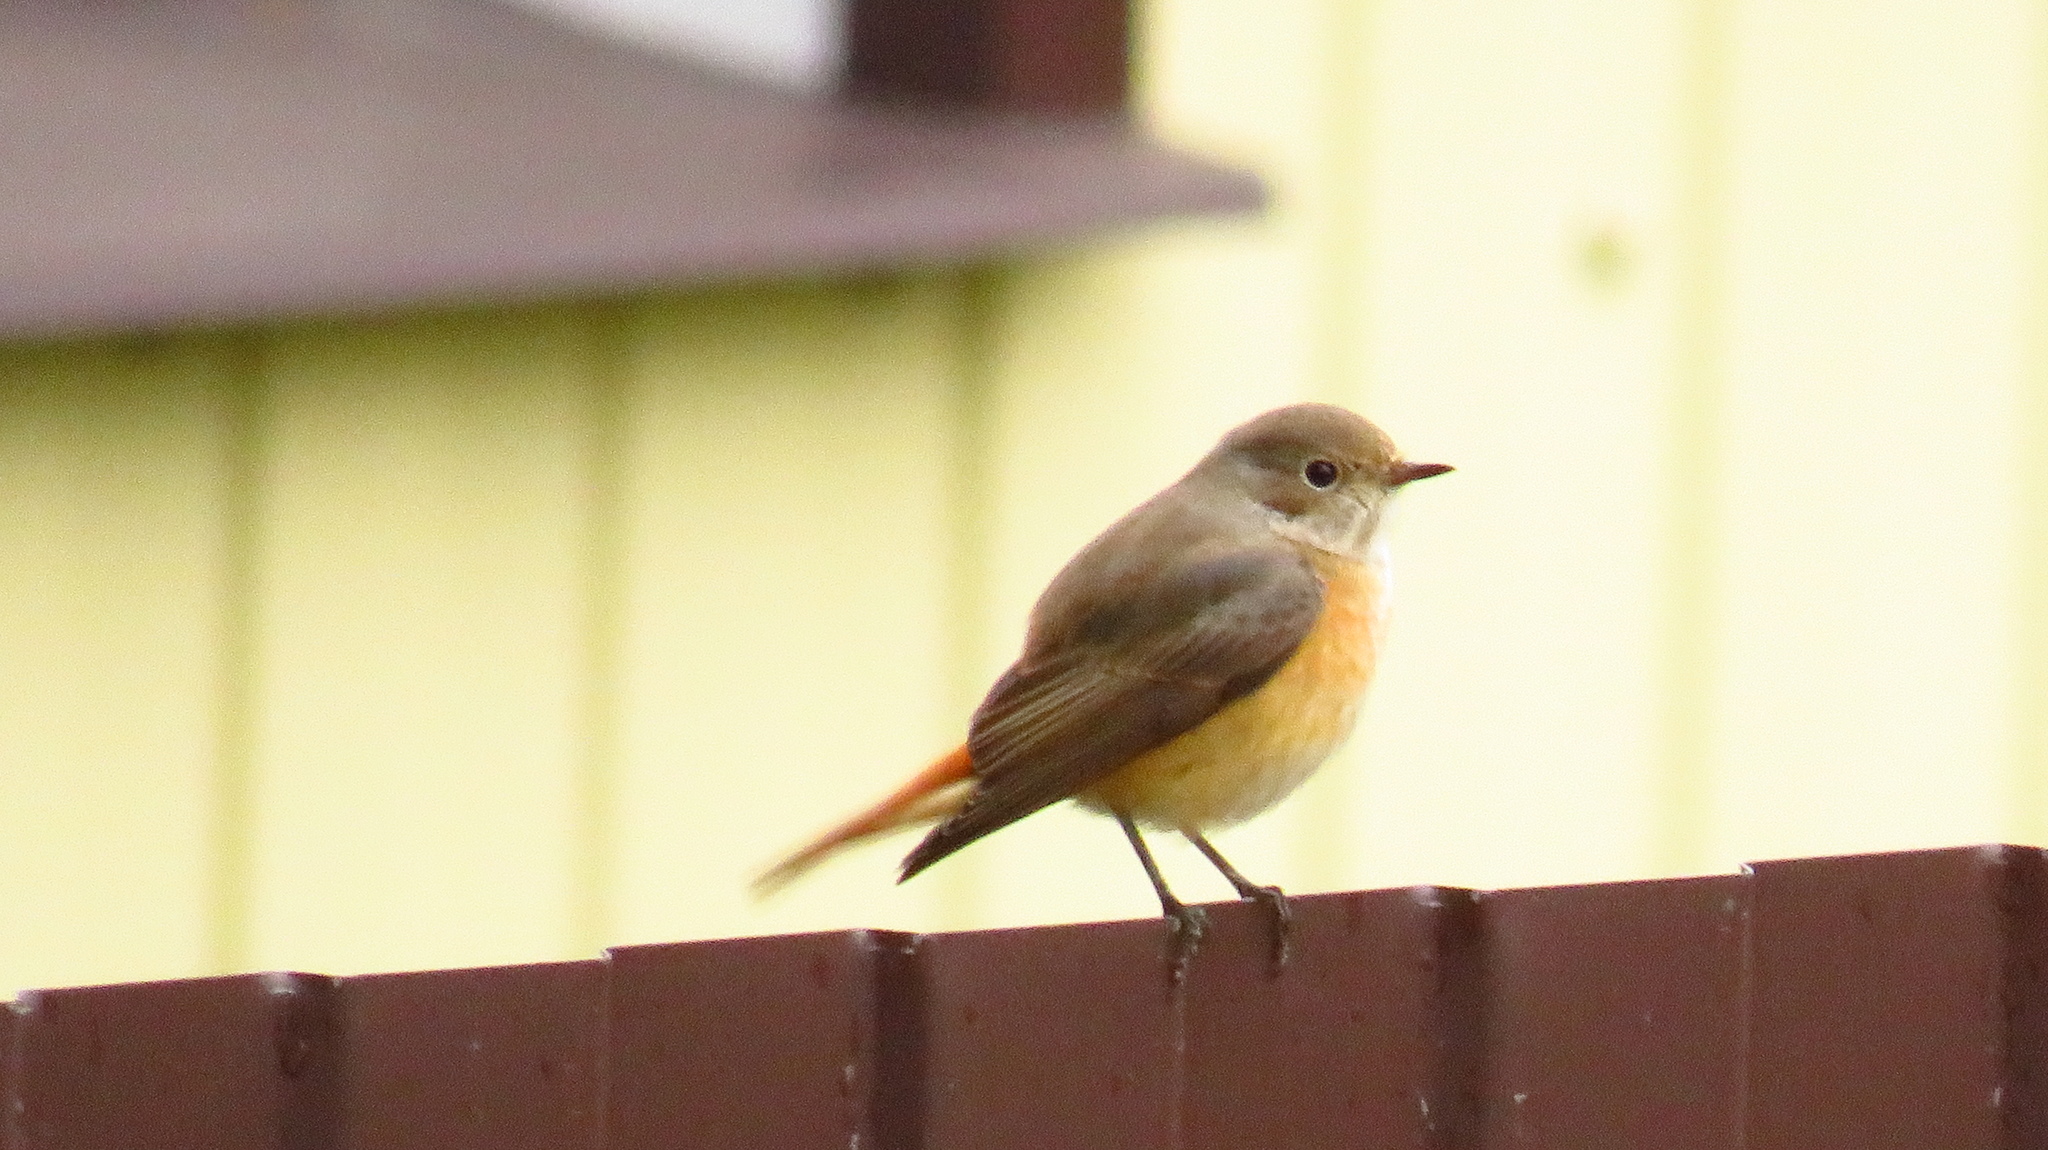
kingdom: Animalia
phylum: Chordata
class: Aves
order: Passeriformes
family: Muscicapidae
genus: Phoenicurus
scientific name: Phoenicurus phoenicurus
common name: Common redstart
